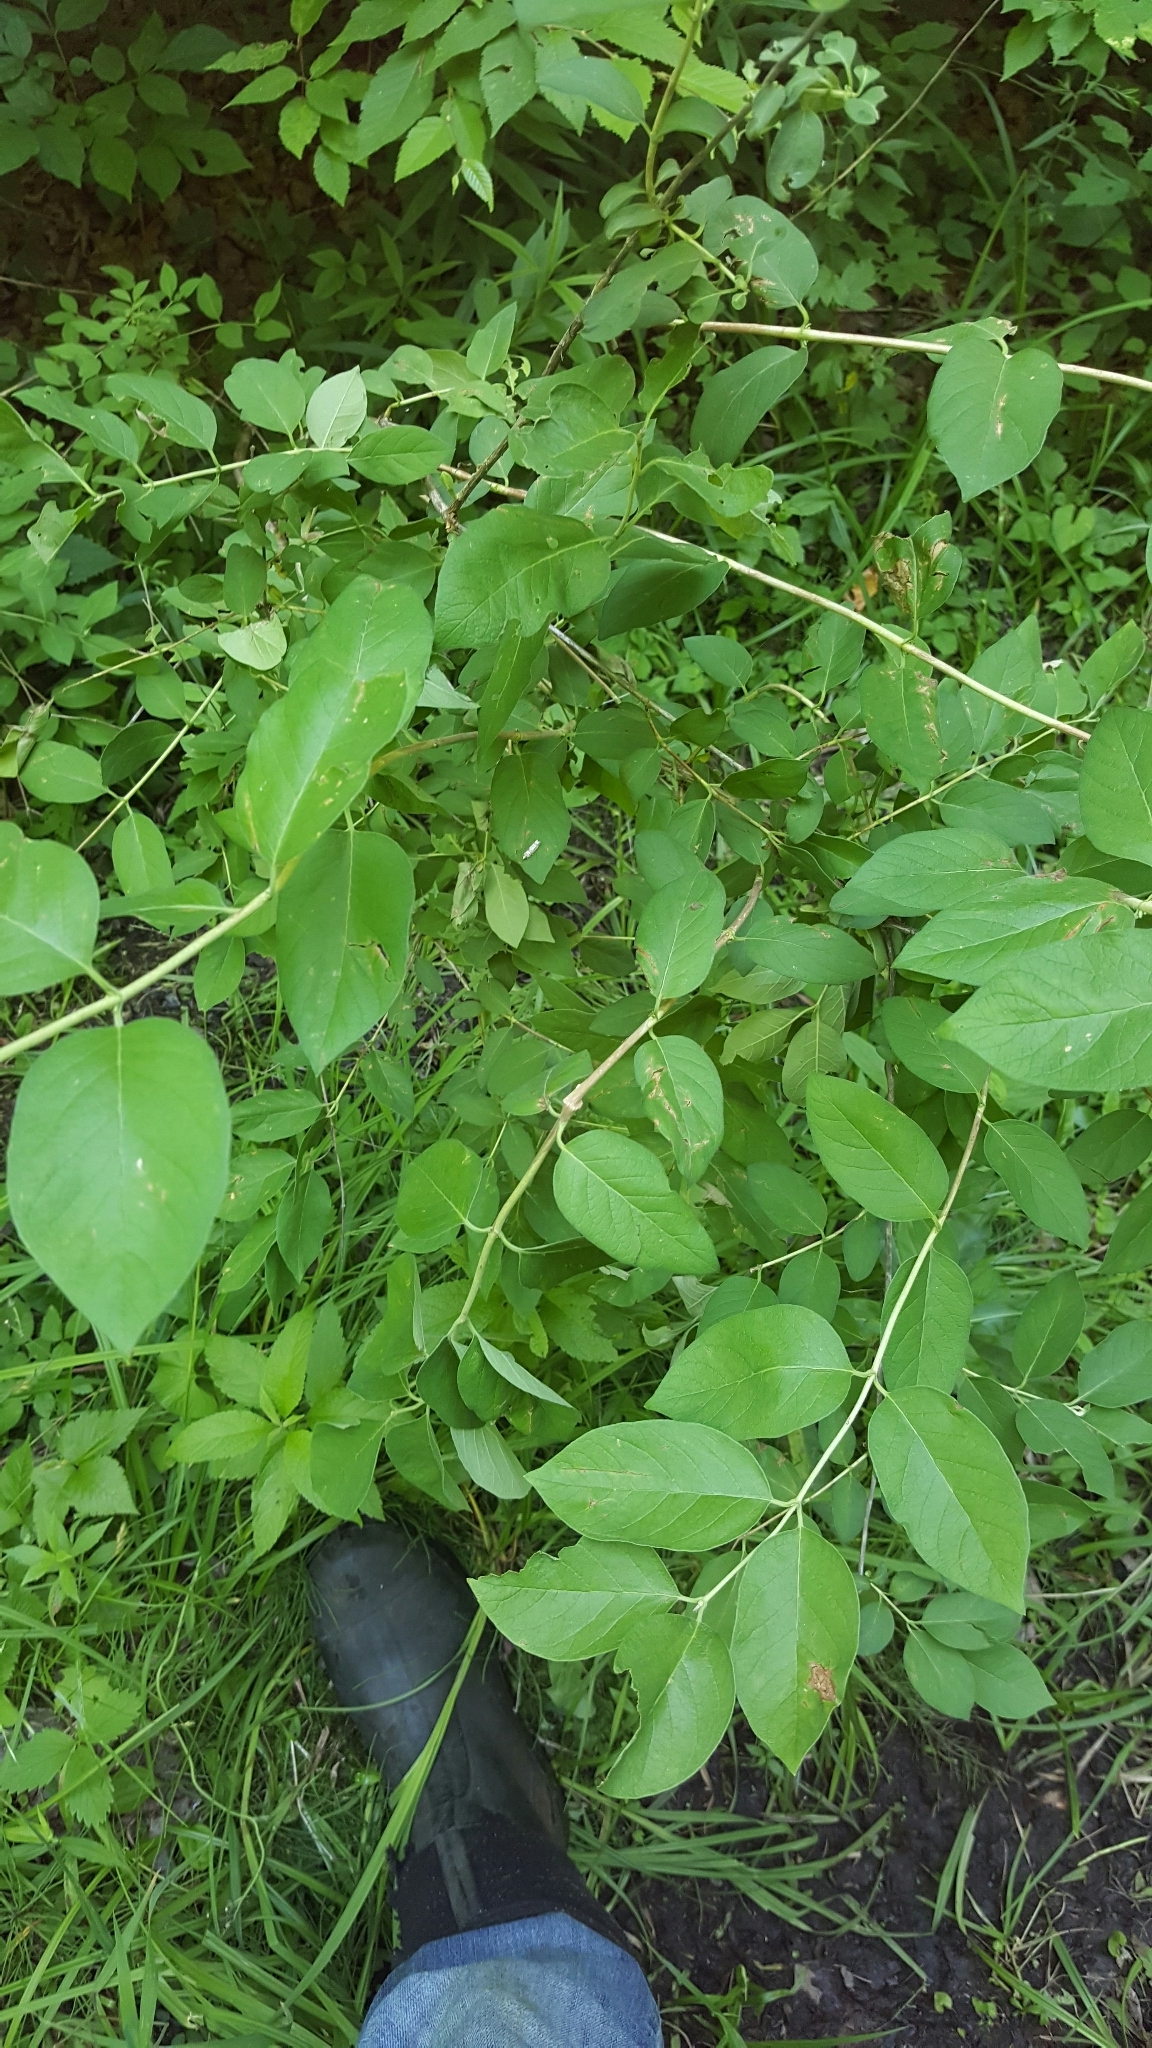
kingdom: Plantae
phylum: Tracheophyta
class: Magnoliopsida
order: Dipsacales
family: Caprifoliaceae
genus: Lonicera
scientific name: Lonicera morrowii
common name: Morrow's honeysuckle
